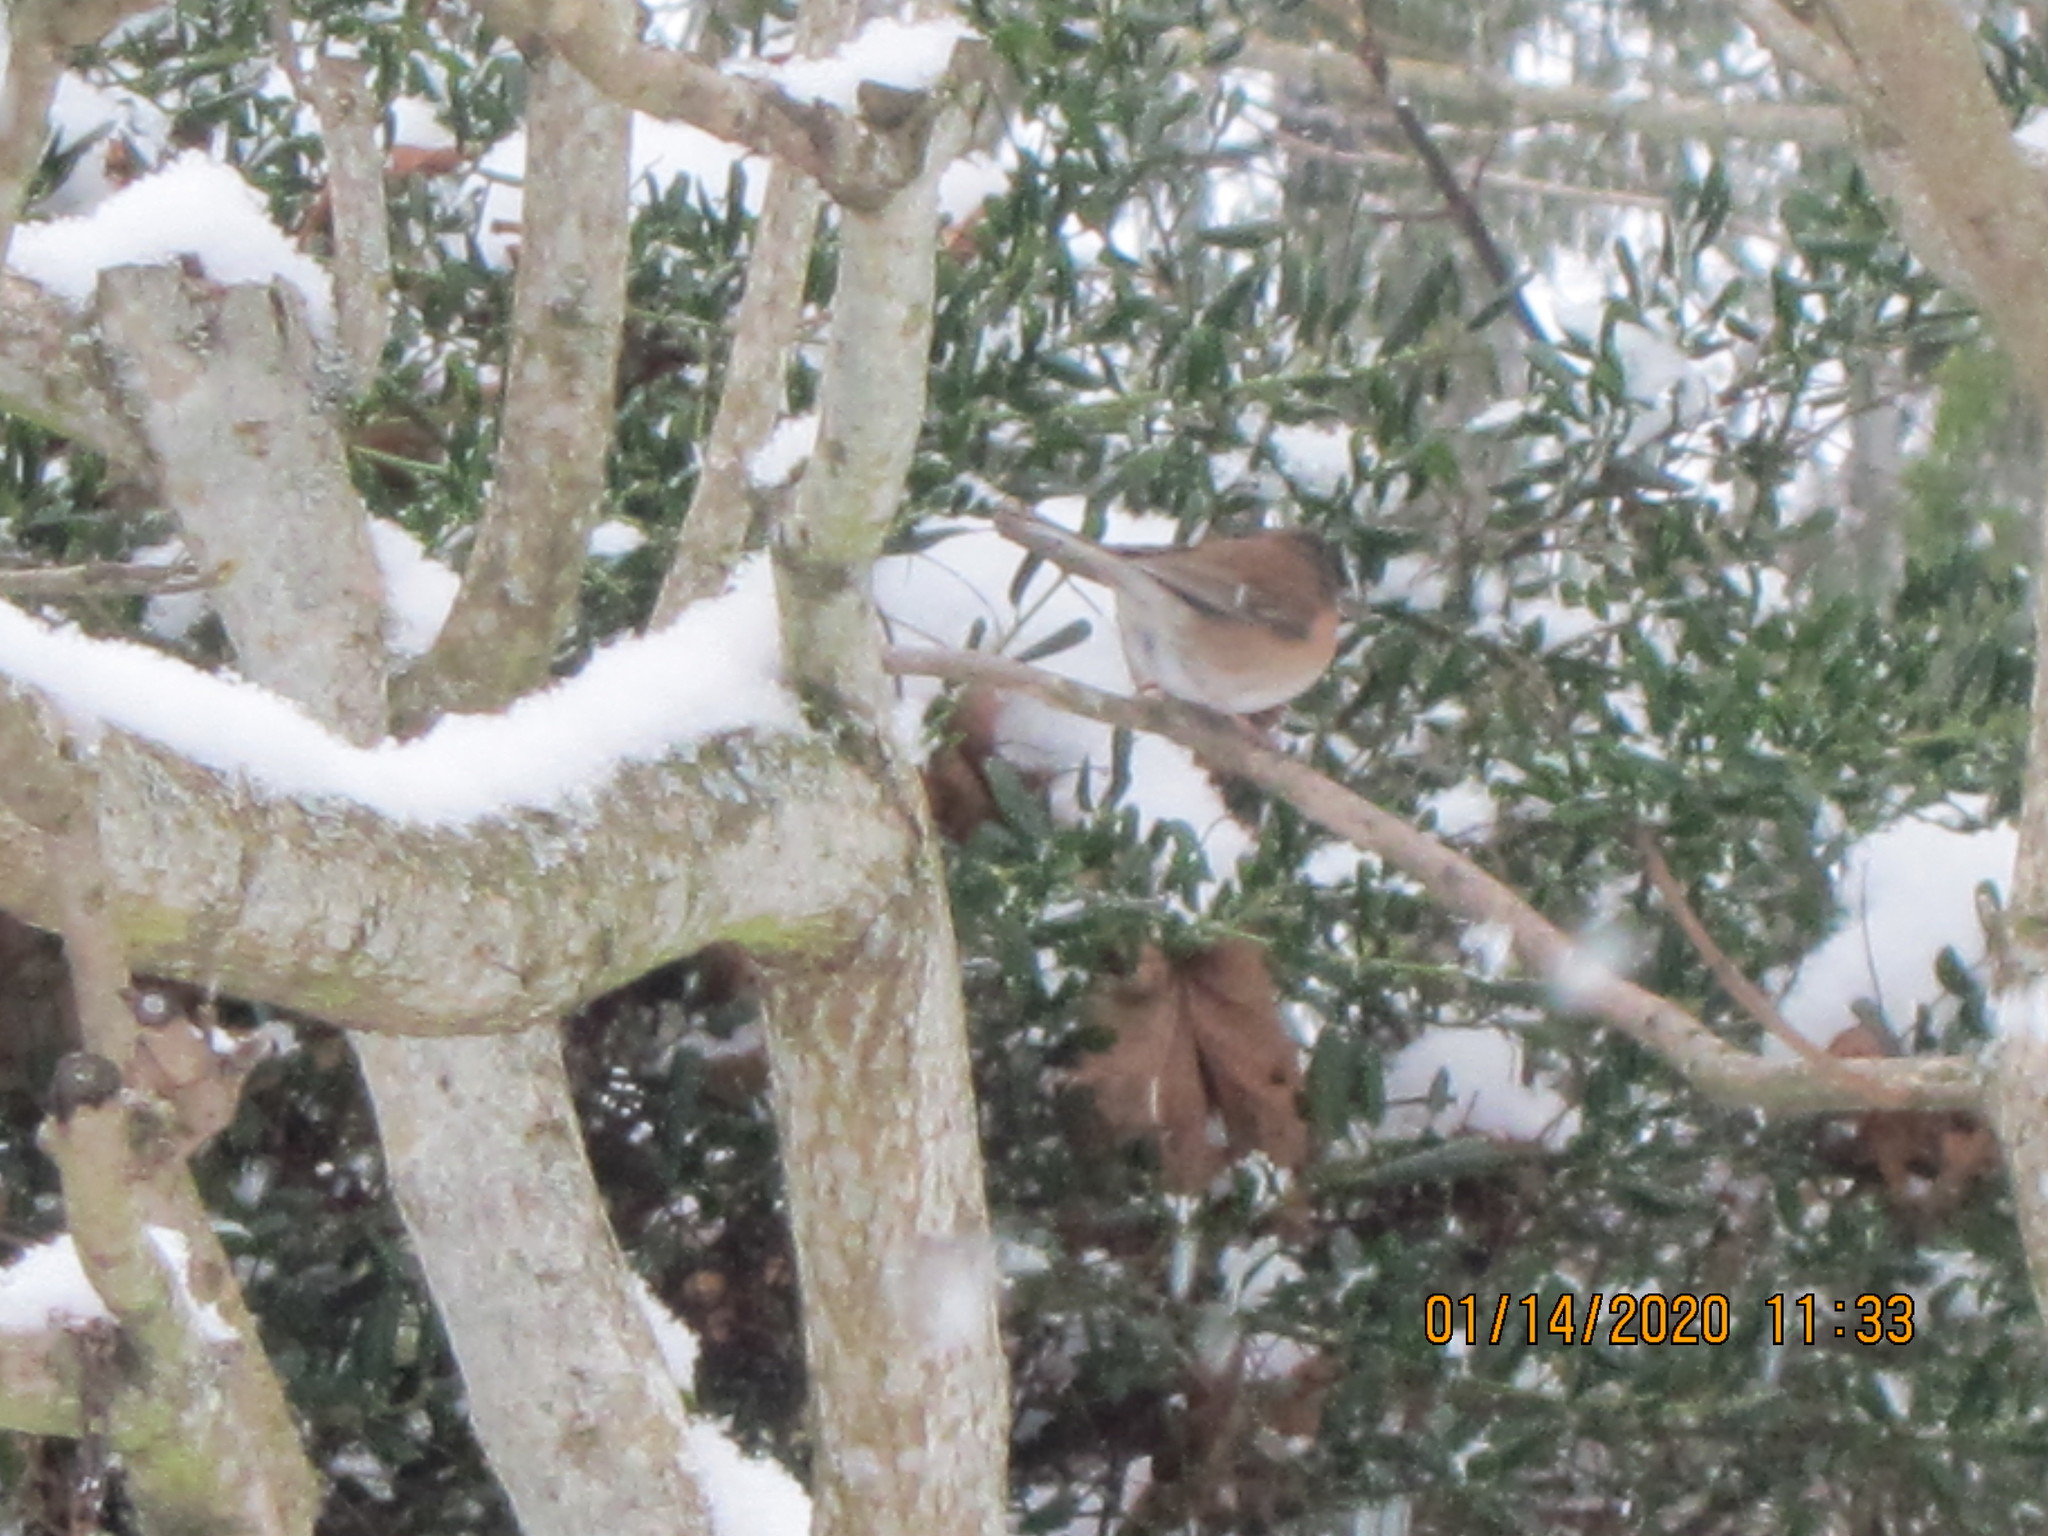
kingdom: Animalia
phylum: Chordata
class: Aves
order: Passeriformes
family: Passerellidae
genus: Junco
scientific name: Junco hyemalis
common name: Dark-eyed junco
